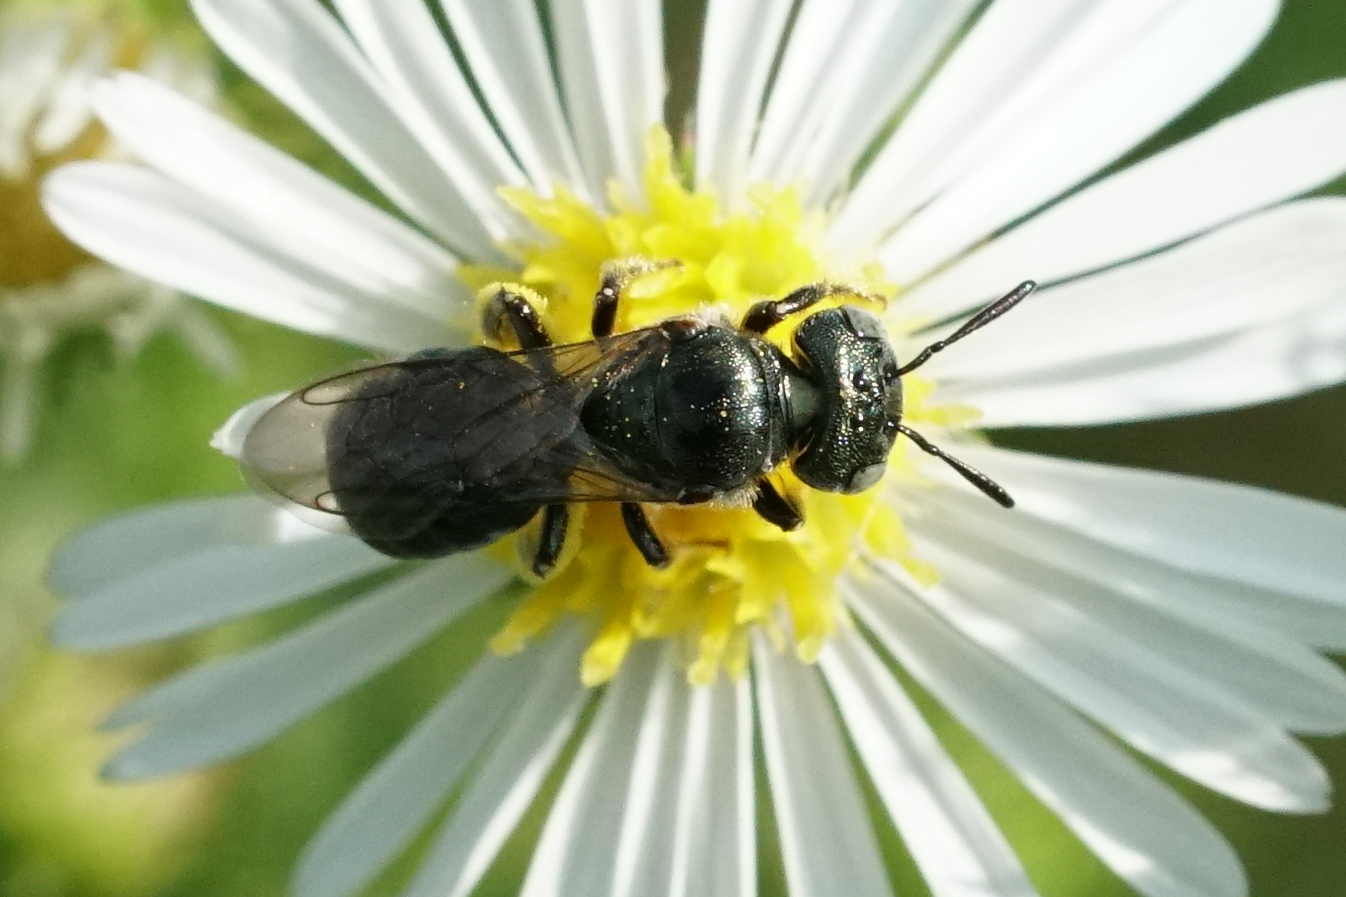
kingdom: Animalia
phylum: Arthropoda
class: Insecta
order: Hymenoptera
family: Apidae
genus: Zadontomerus
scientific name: Zadontomerus
